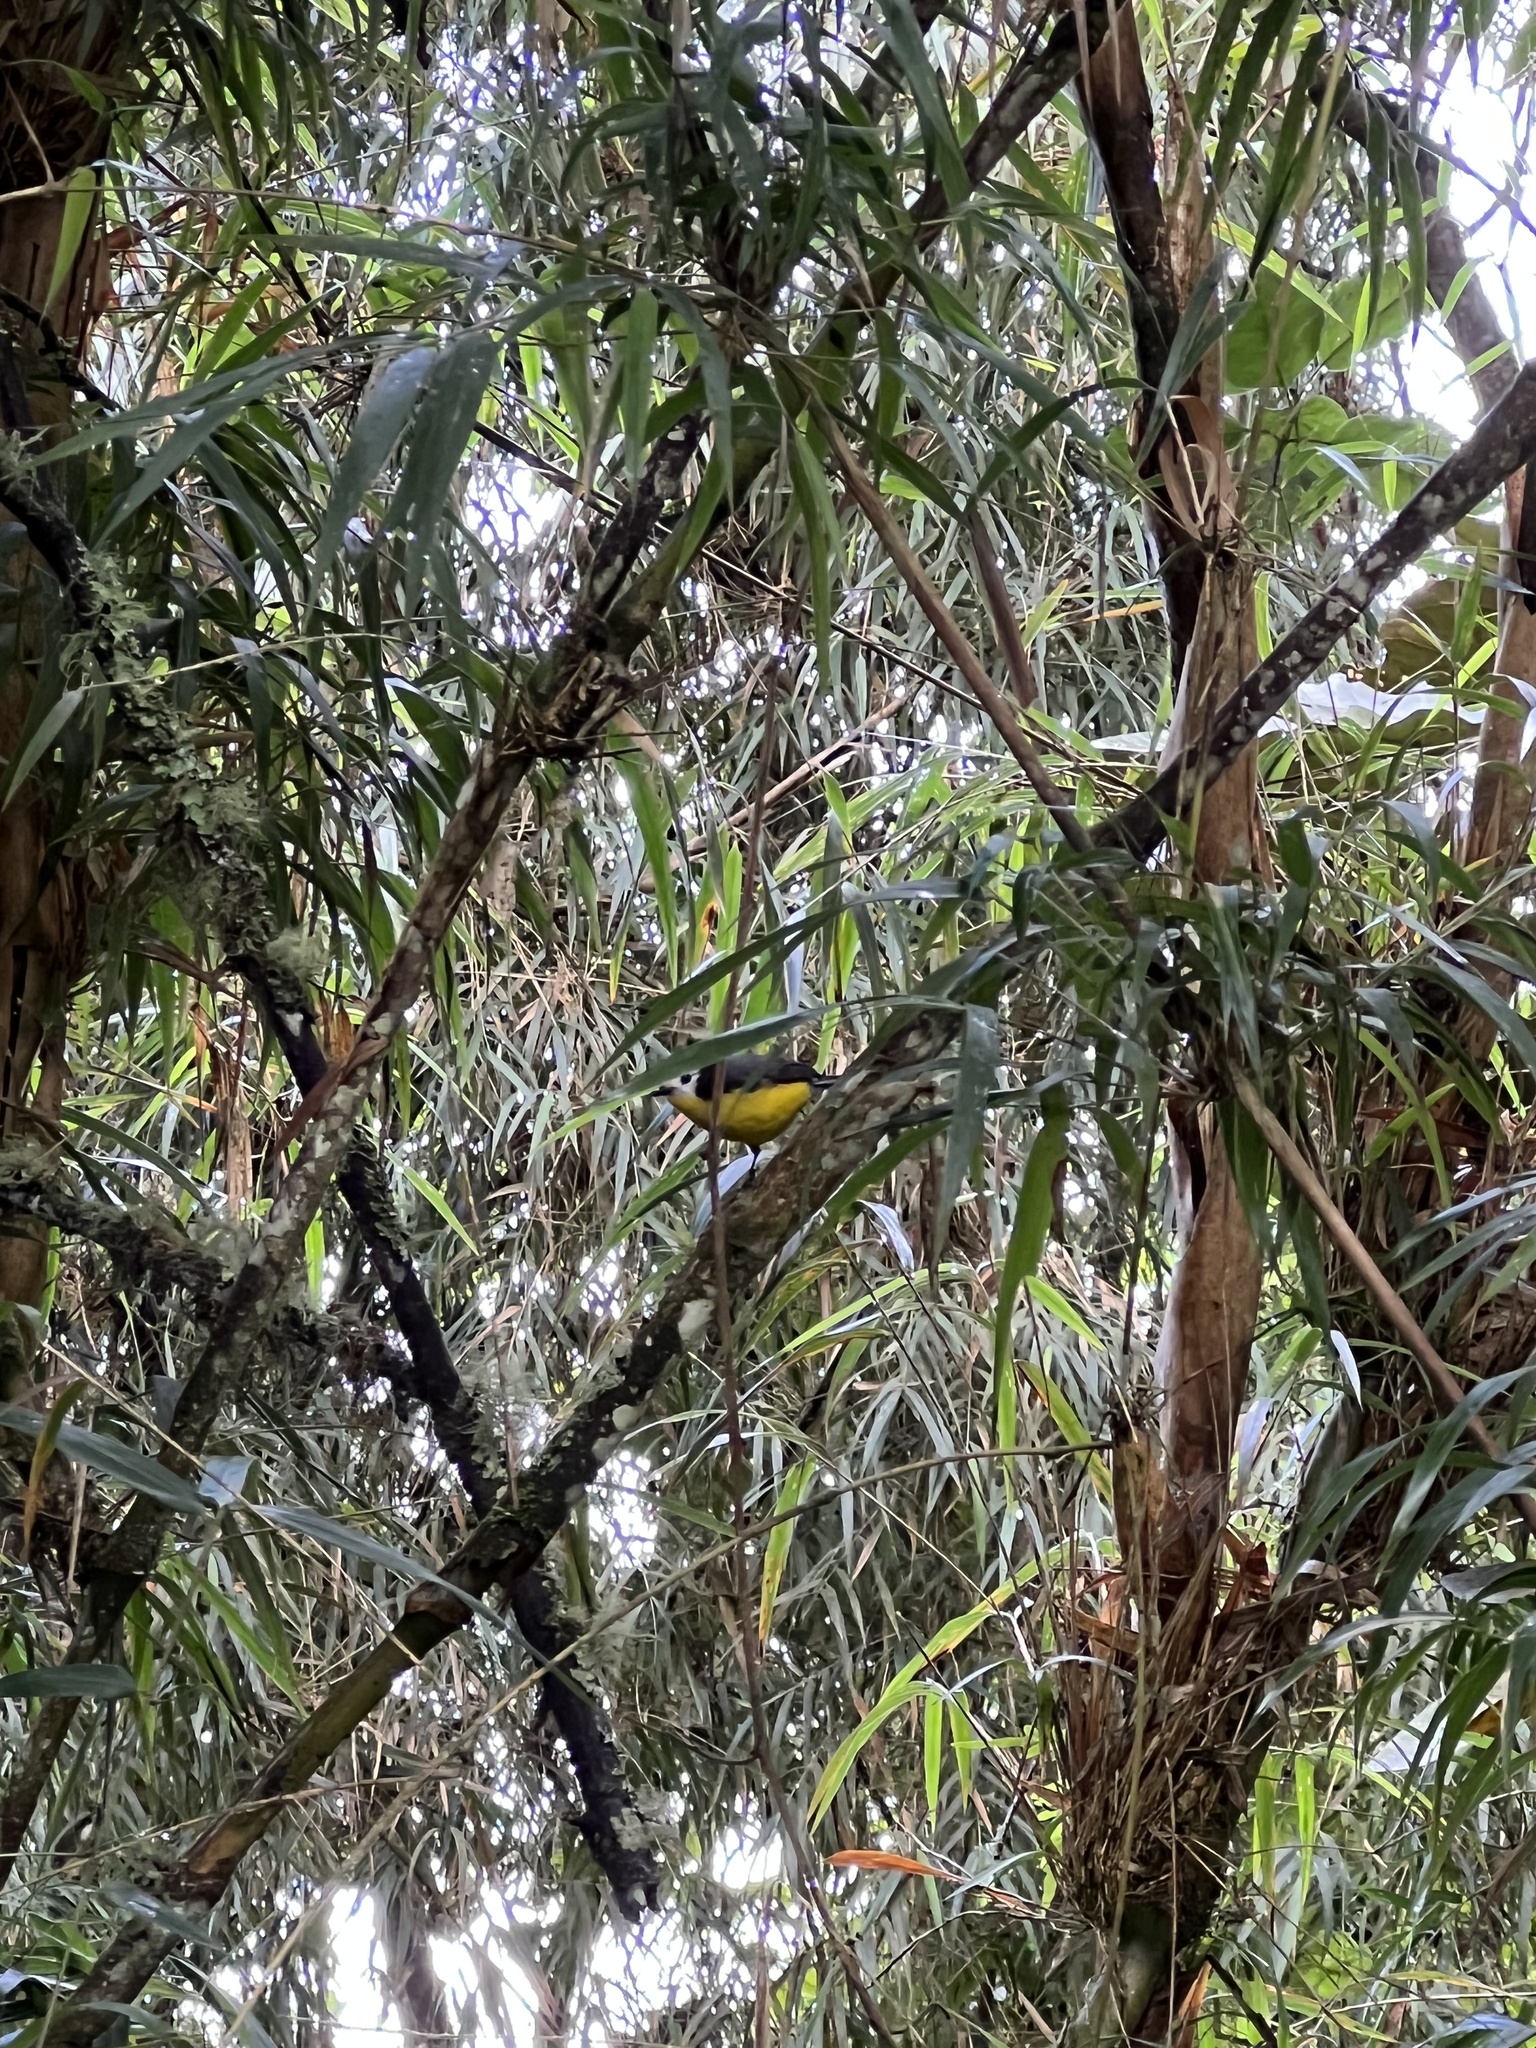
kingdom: Animalia
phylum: Chordata
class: Aves
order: Passeriformes
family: Parulidae
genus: Myioborus
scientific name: Myioborus ornatus
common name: Golden-fronted whitestart
